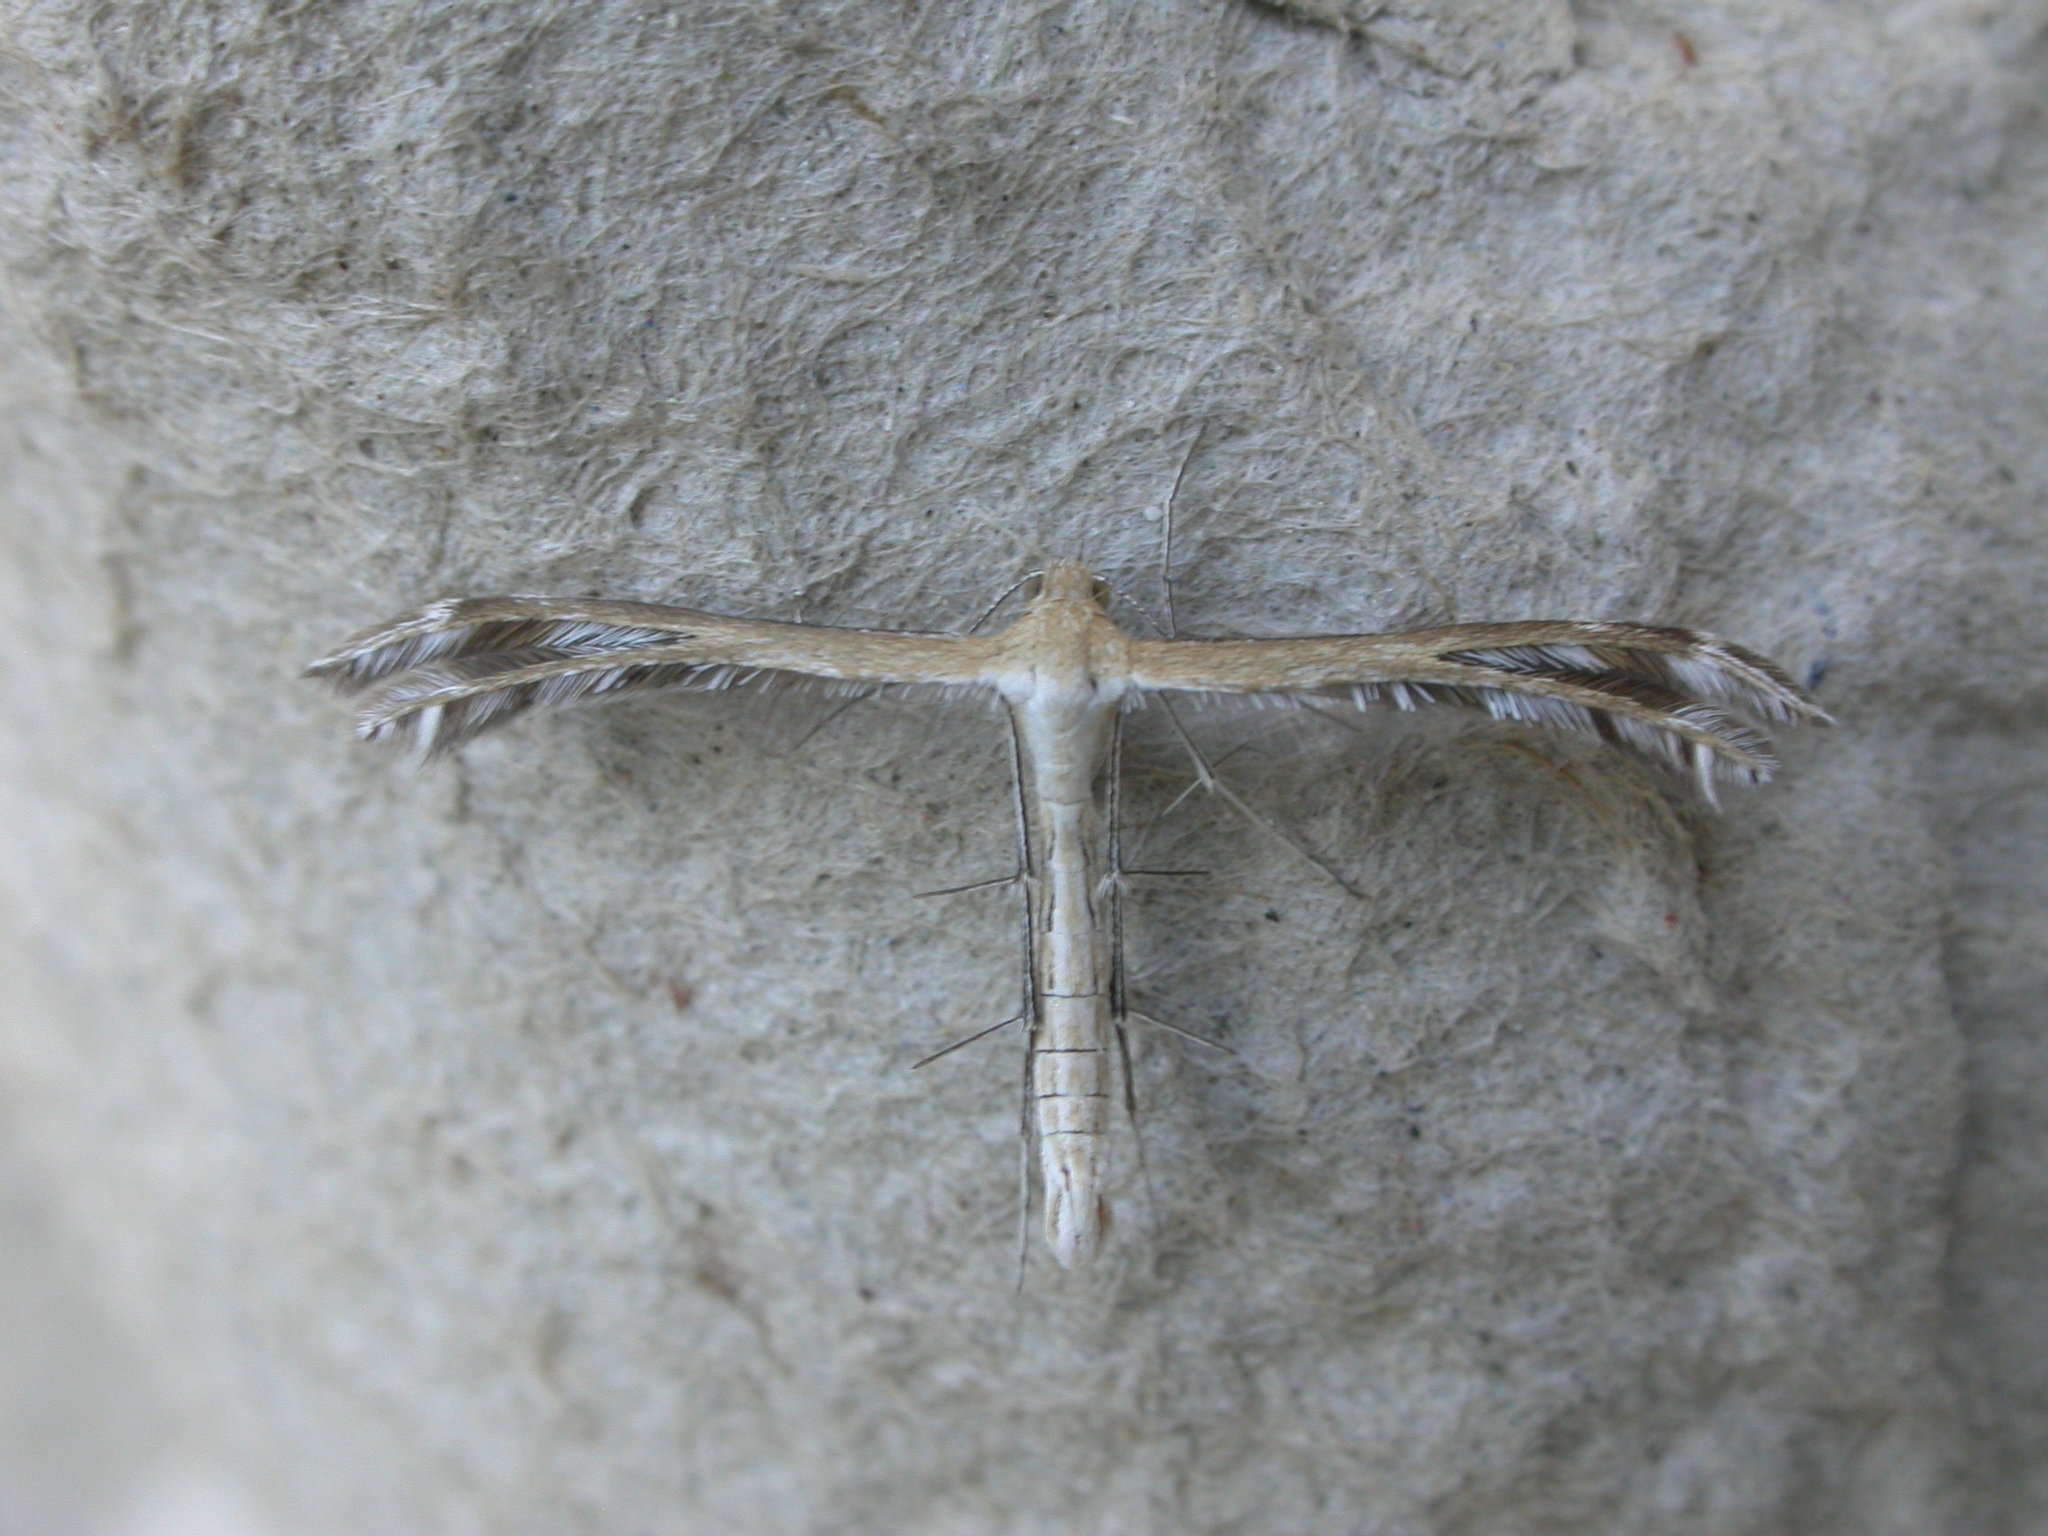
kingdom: Animalia
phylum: Arthropoda
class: Insecta
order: Lepidoptera
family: Pterophoridae
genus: Stangeia
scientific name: Stangeia xerodes
